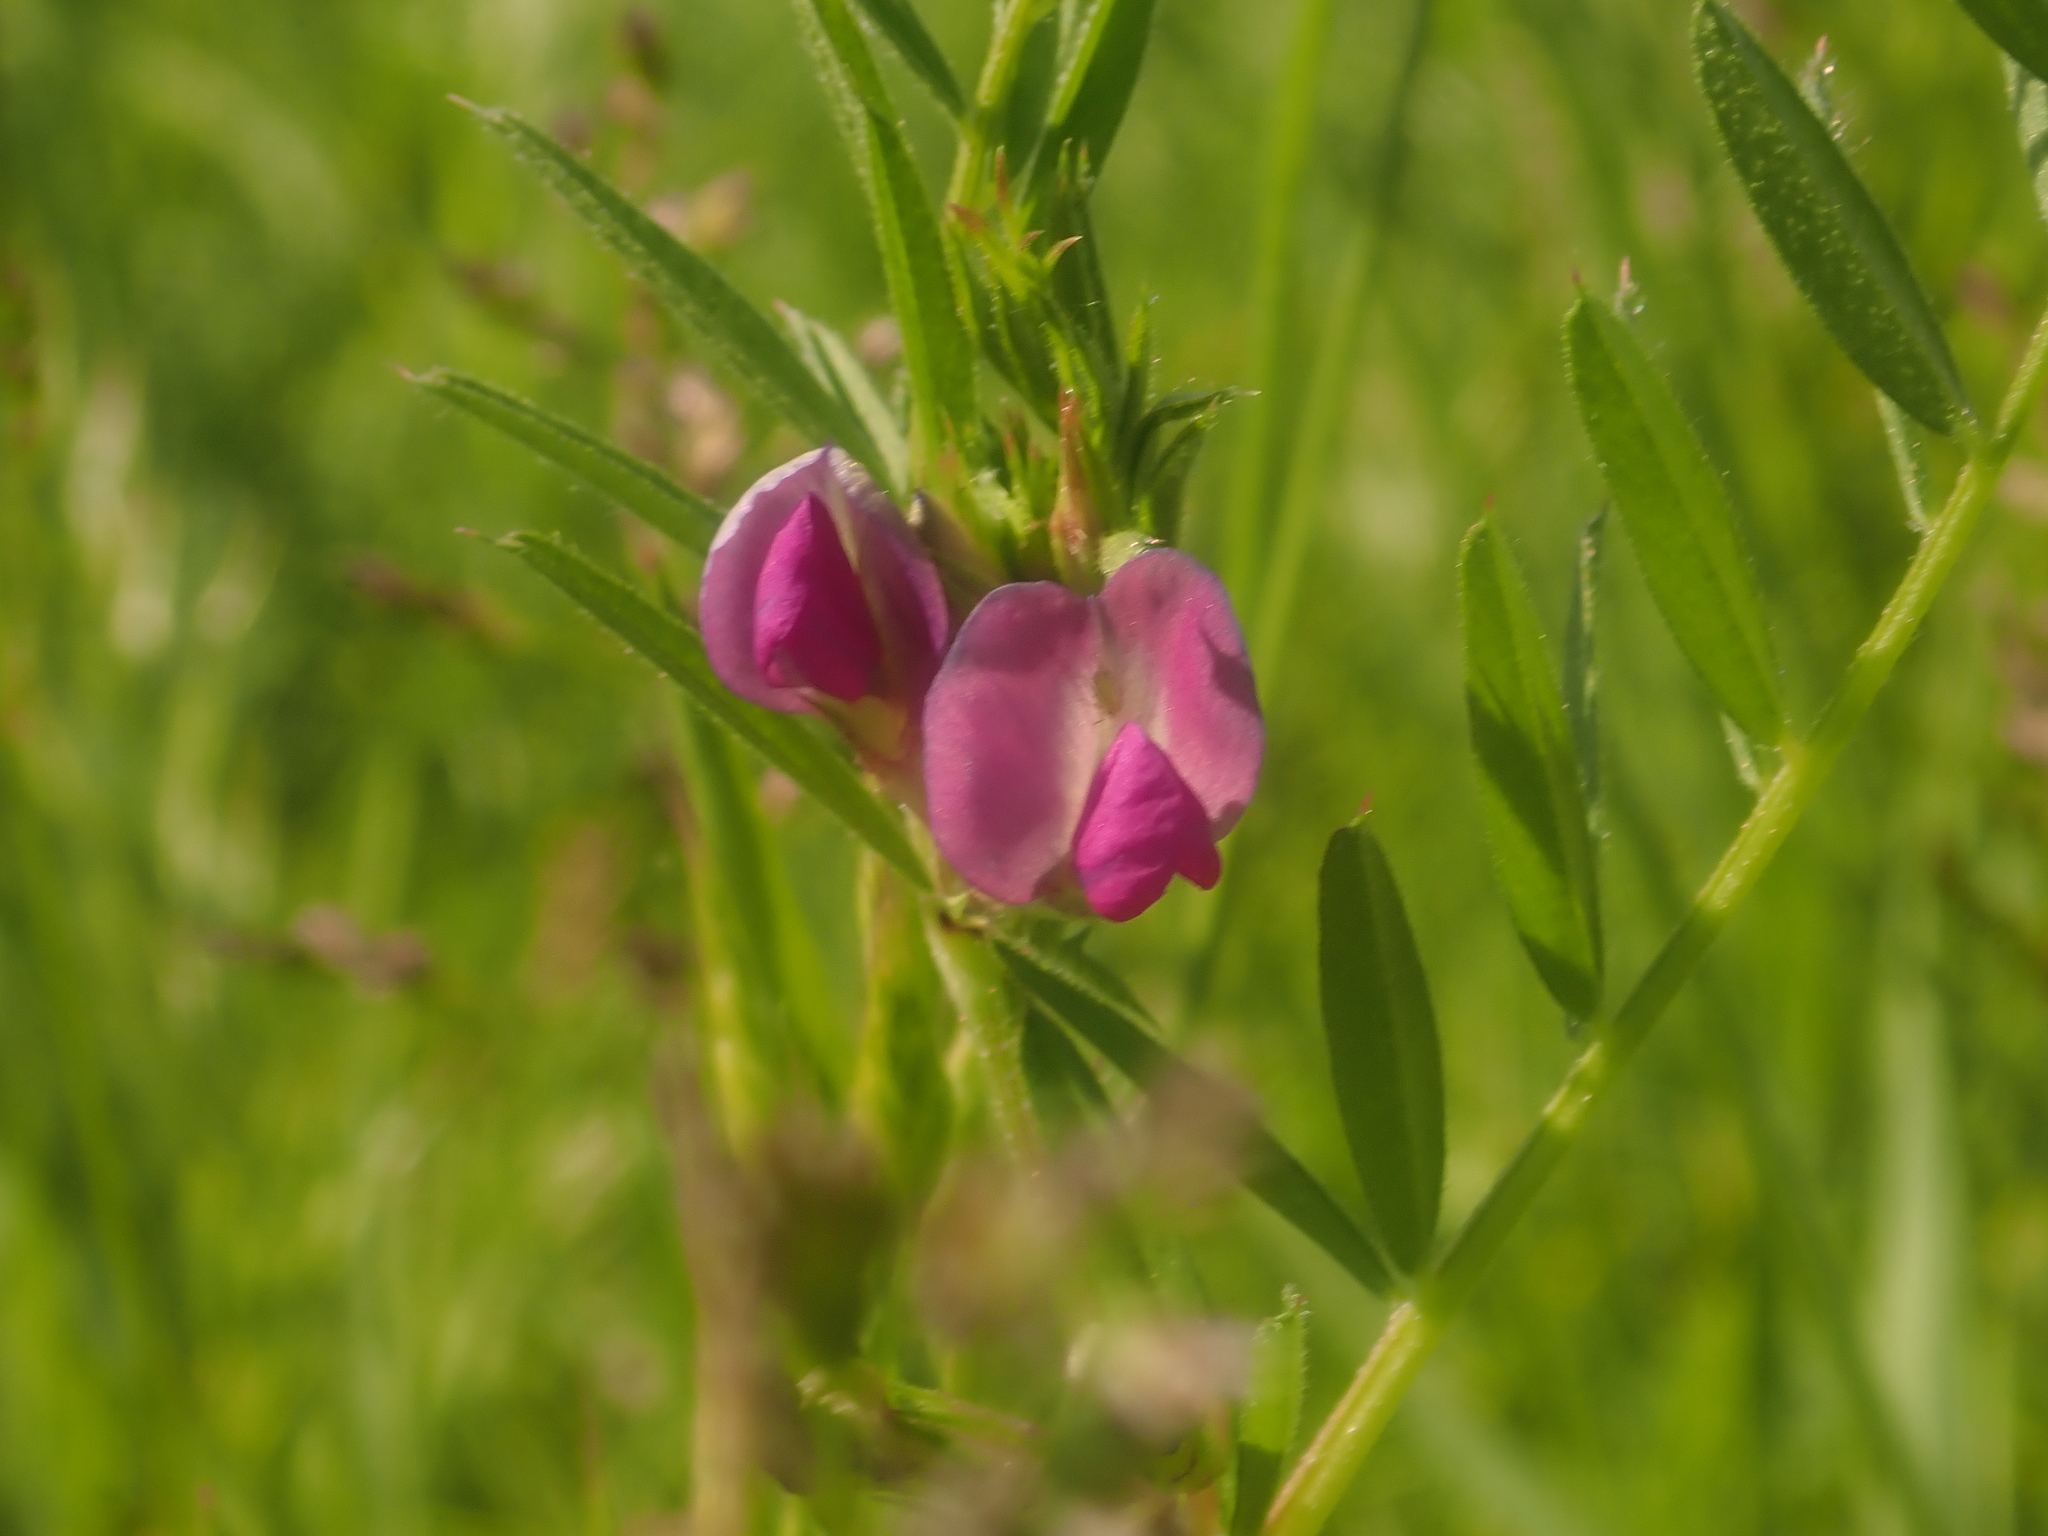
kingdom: Plantae
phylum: Tracheophyta
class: Magnoliopsida
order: Fabales
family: Fabaceae
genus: Vicia
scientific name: Vicia sativa
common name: Garden vetch
